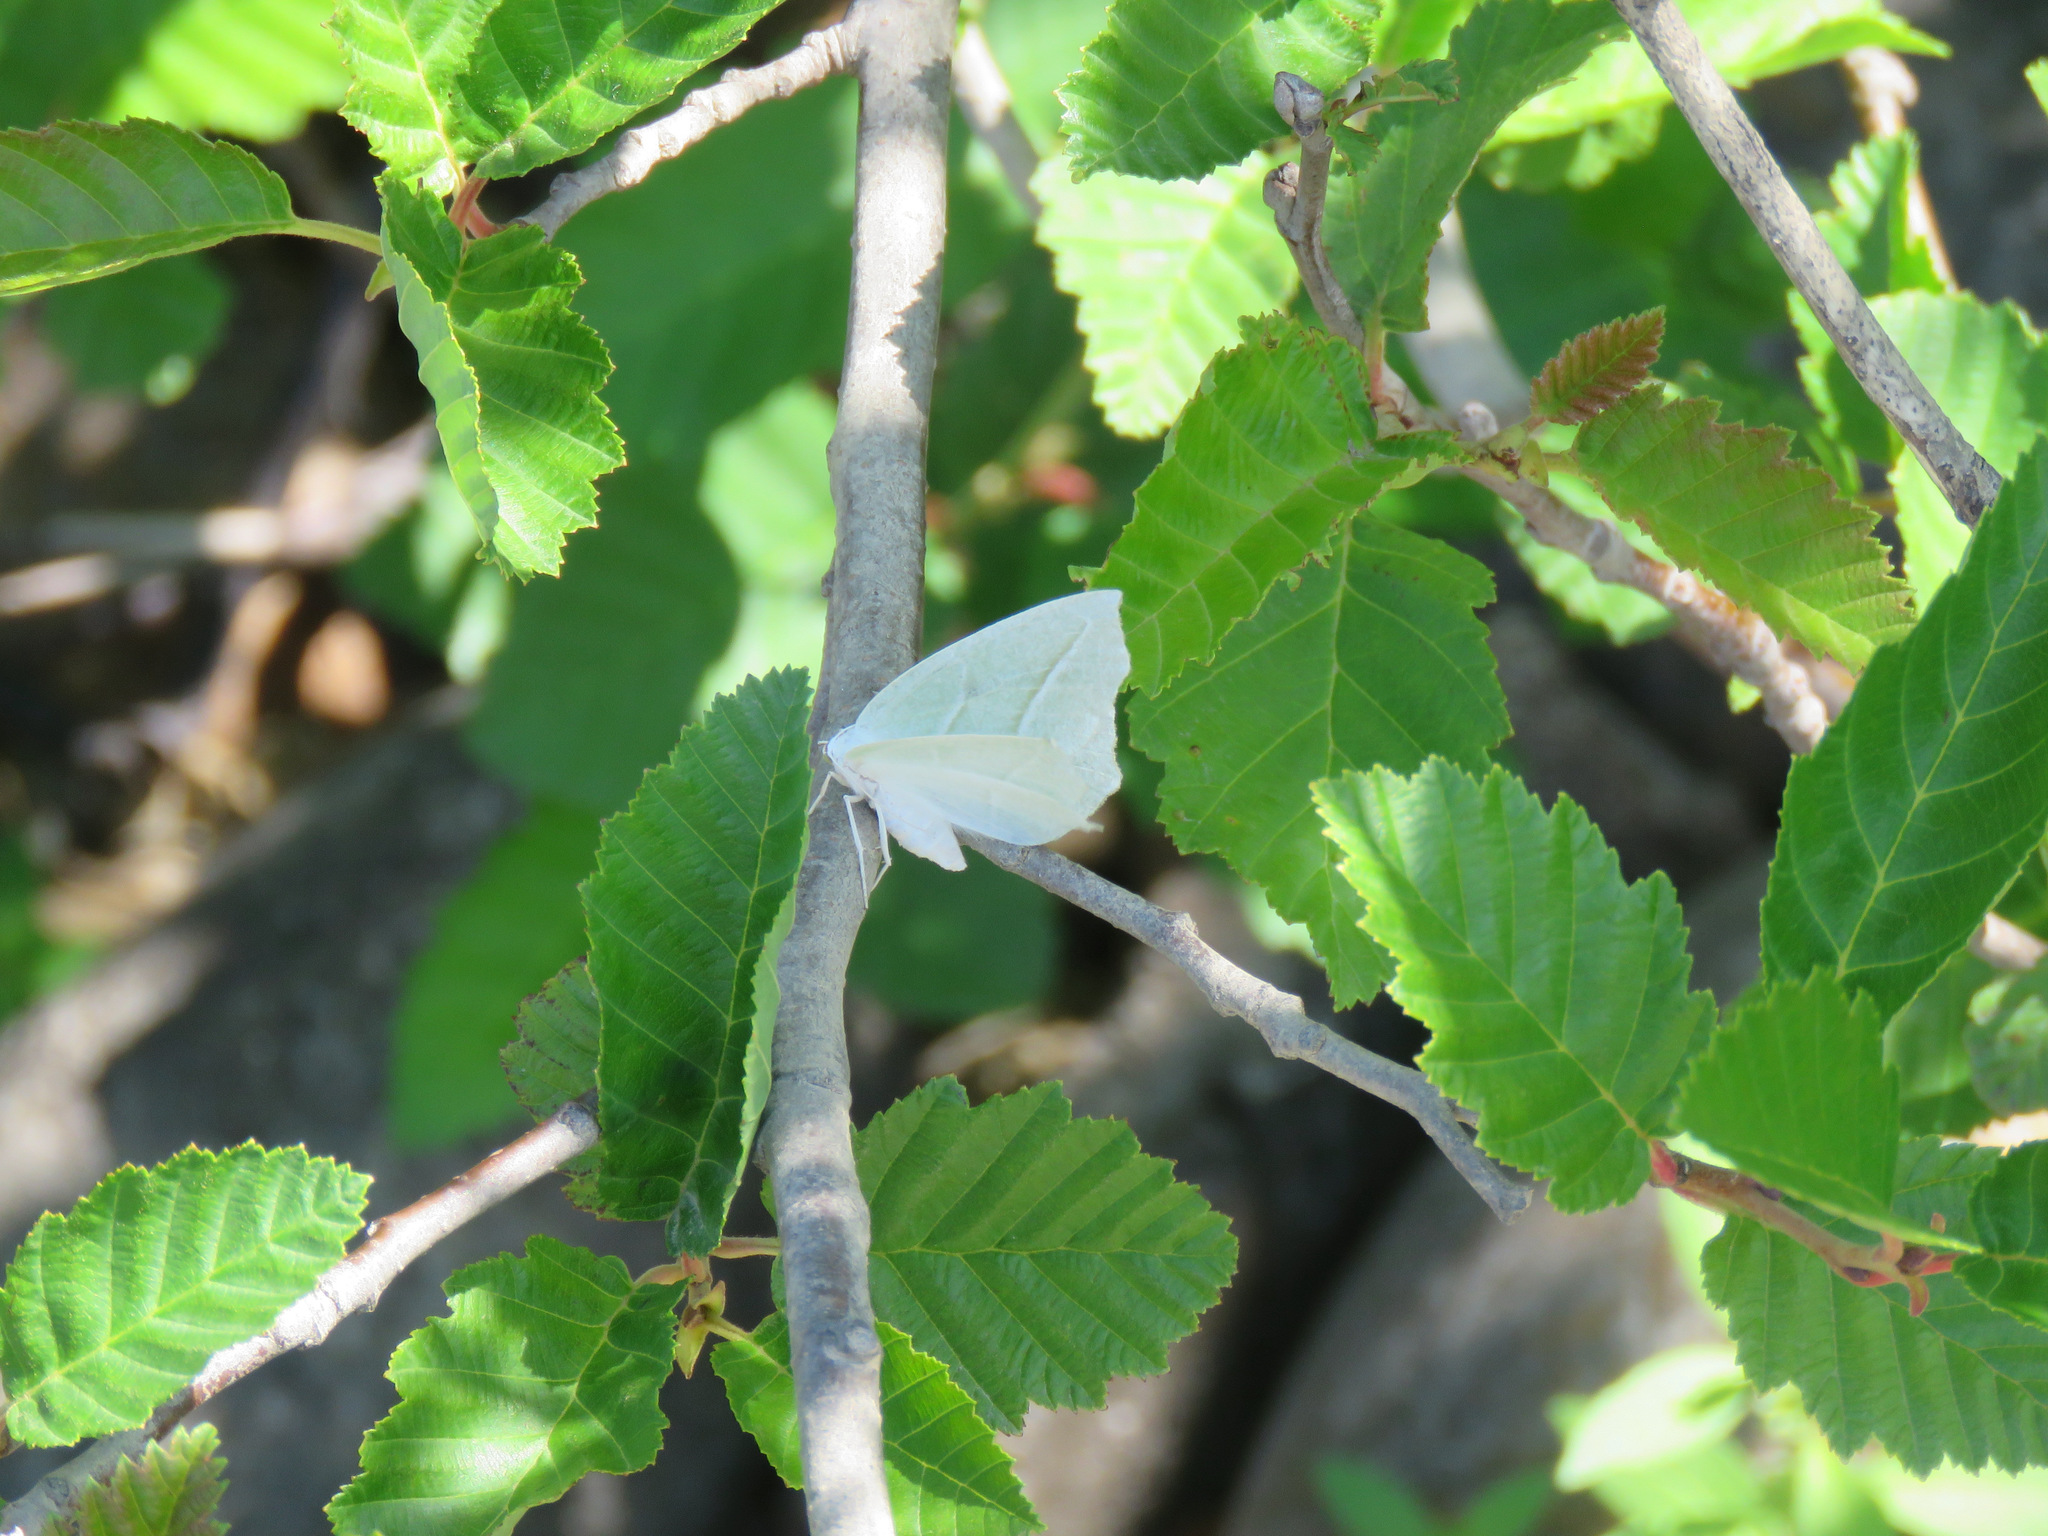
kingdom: Animalia
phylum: Arthropoda
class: Insecta
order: Lepidoptera
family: Geometridae
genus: Campaea
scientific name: Campaea perlata
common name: Fringed looper
